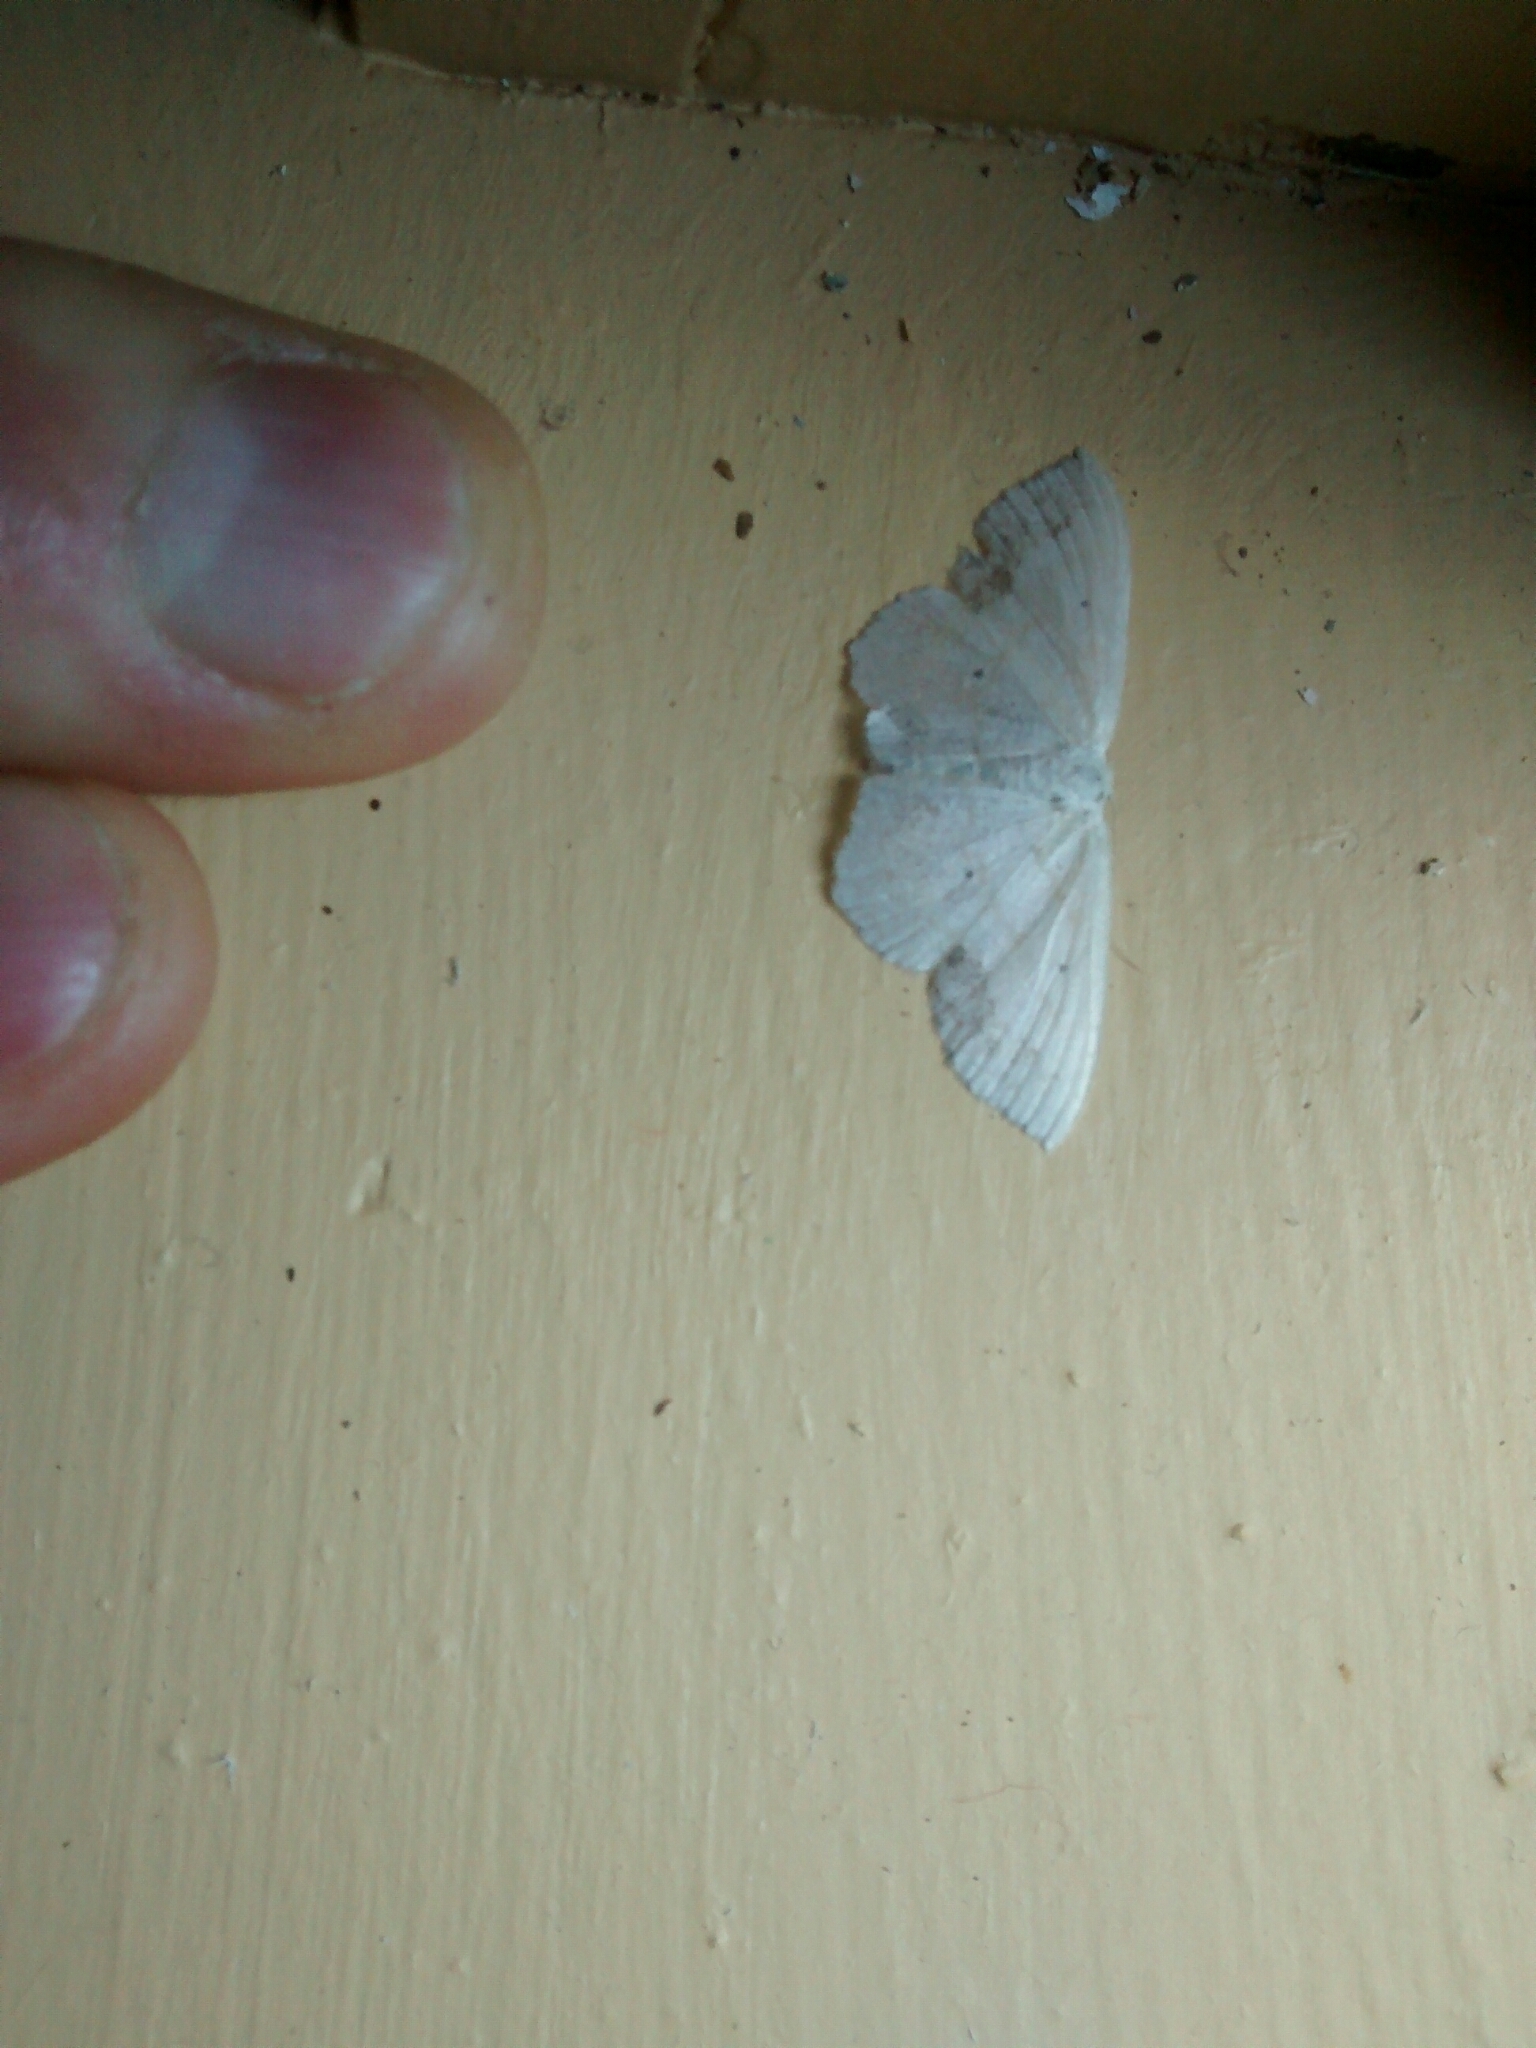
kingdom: Animalia
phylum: Arthropoda
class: Insecta
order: Lepidoptera
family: Geometridae
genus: Scopula
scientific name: Scopula limboundata
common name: Large lace border
